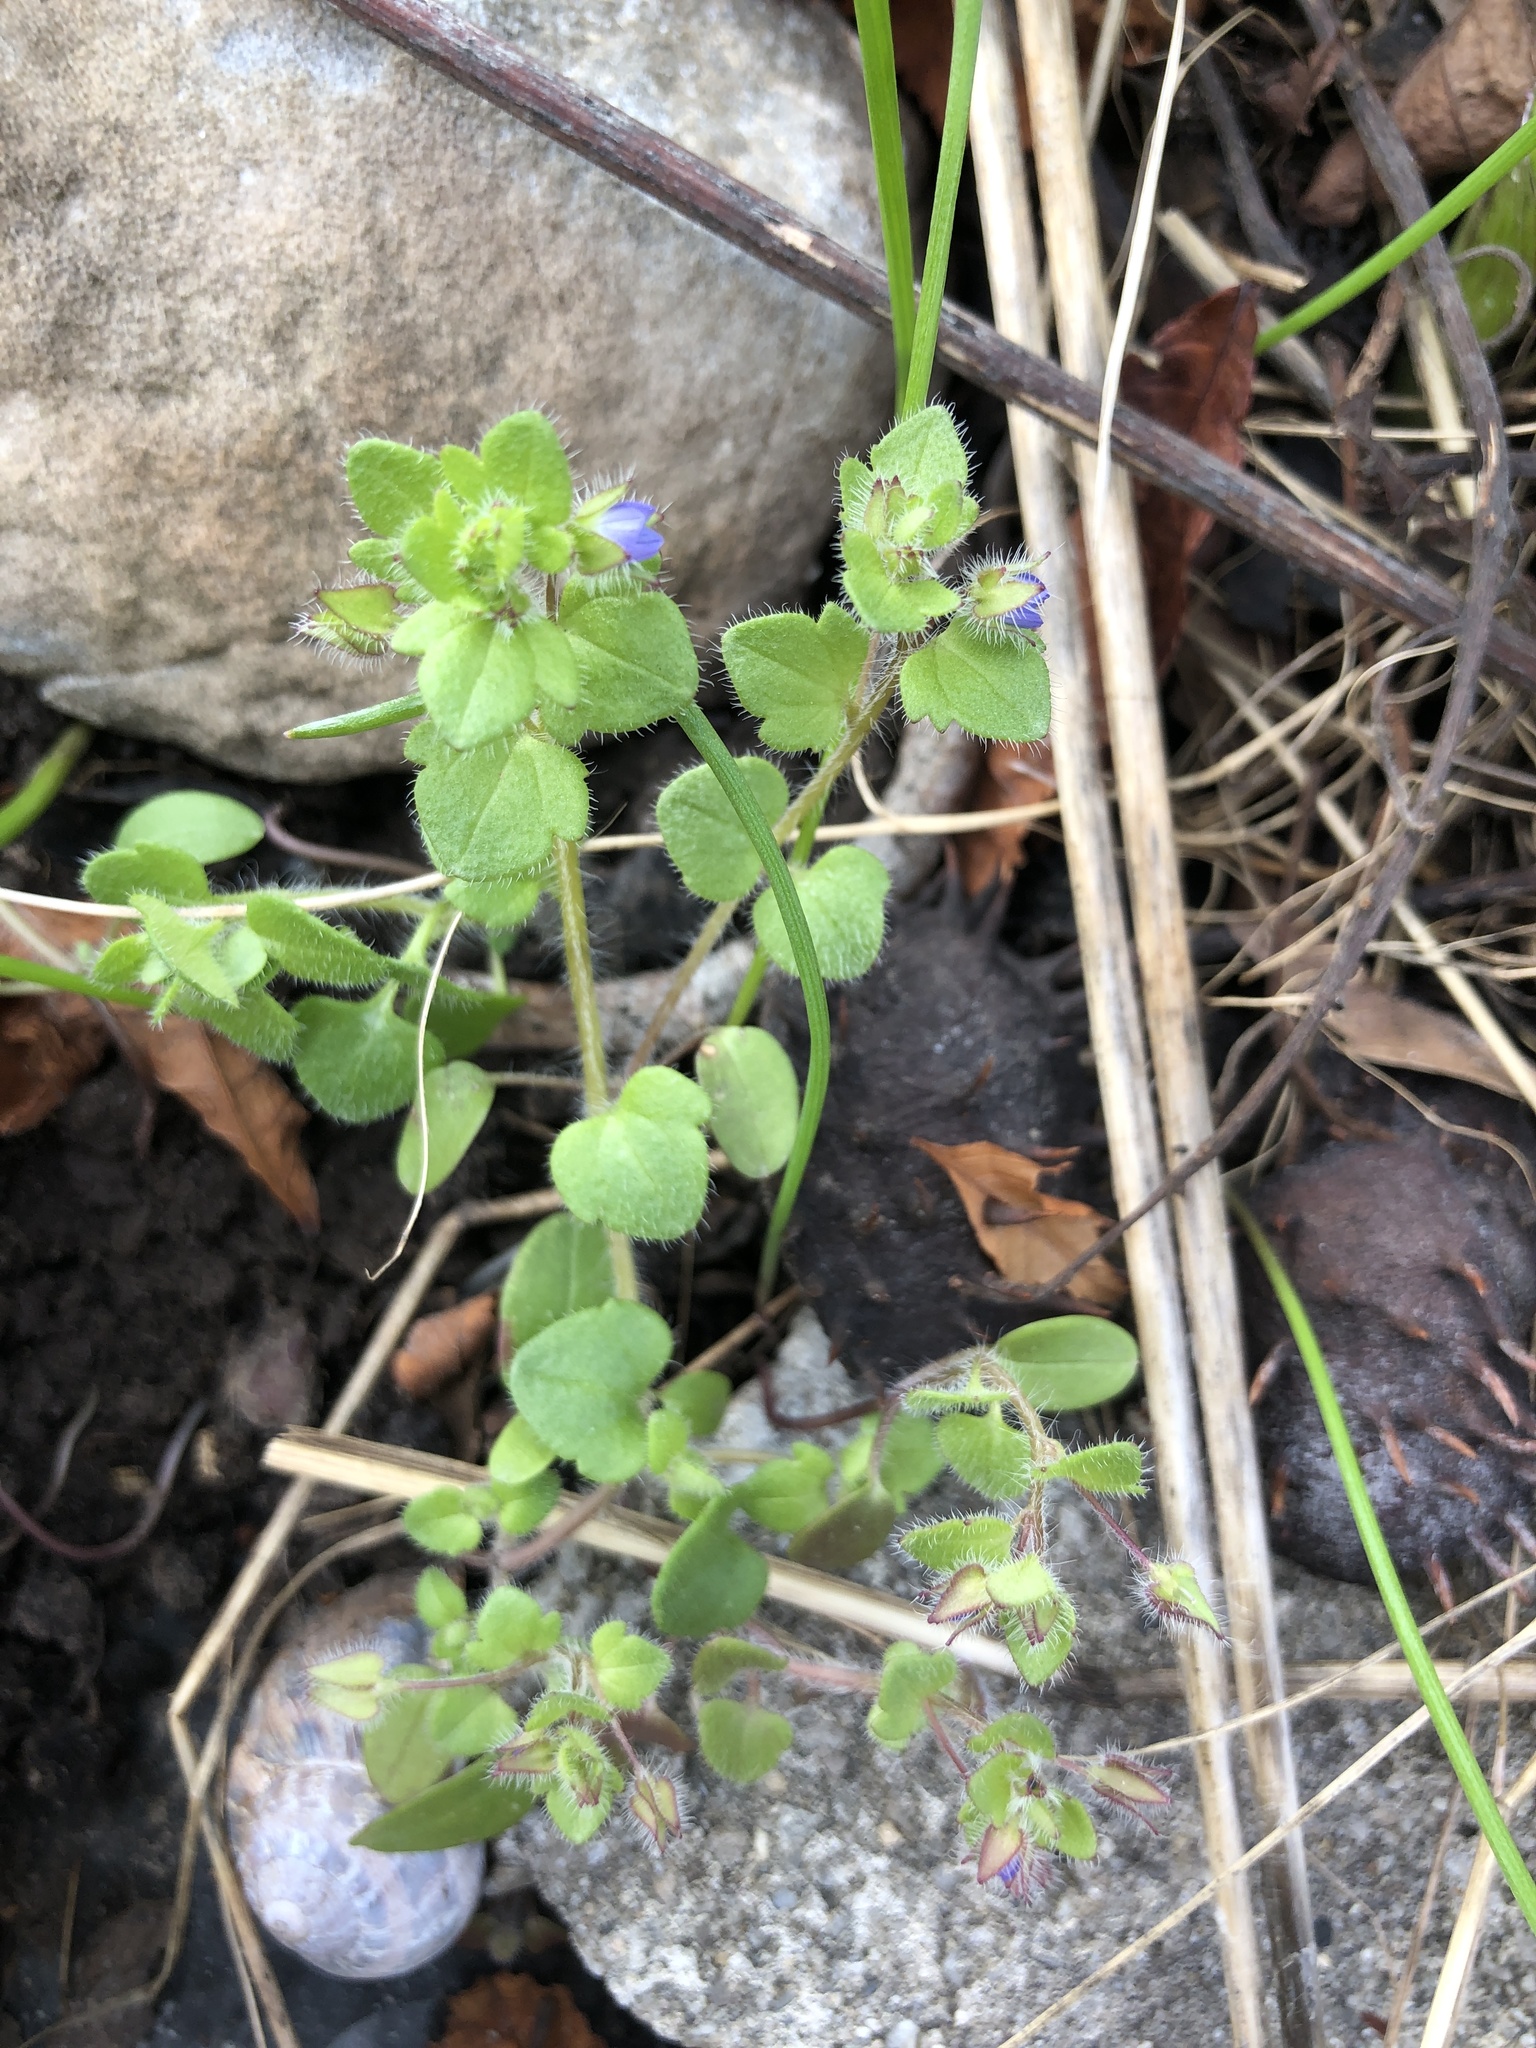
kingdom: Plantae
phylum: Tracheophyta
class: Magnoliopsida
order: Lamiales
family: Plantaginaceae
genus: Veronica
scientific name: Veronica hederifolia
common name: Ivy-leaved speedwell
